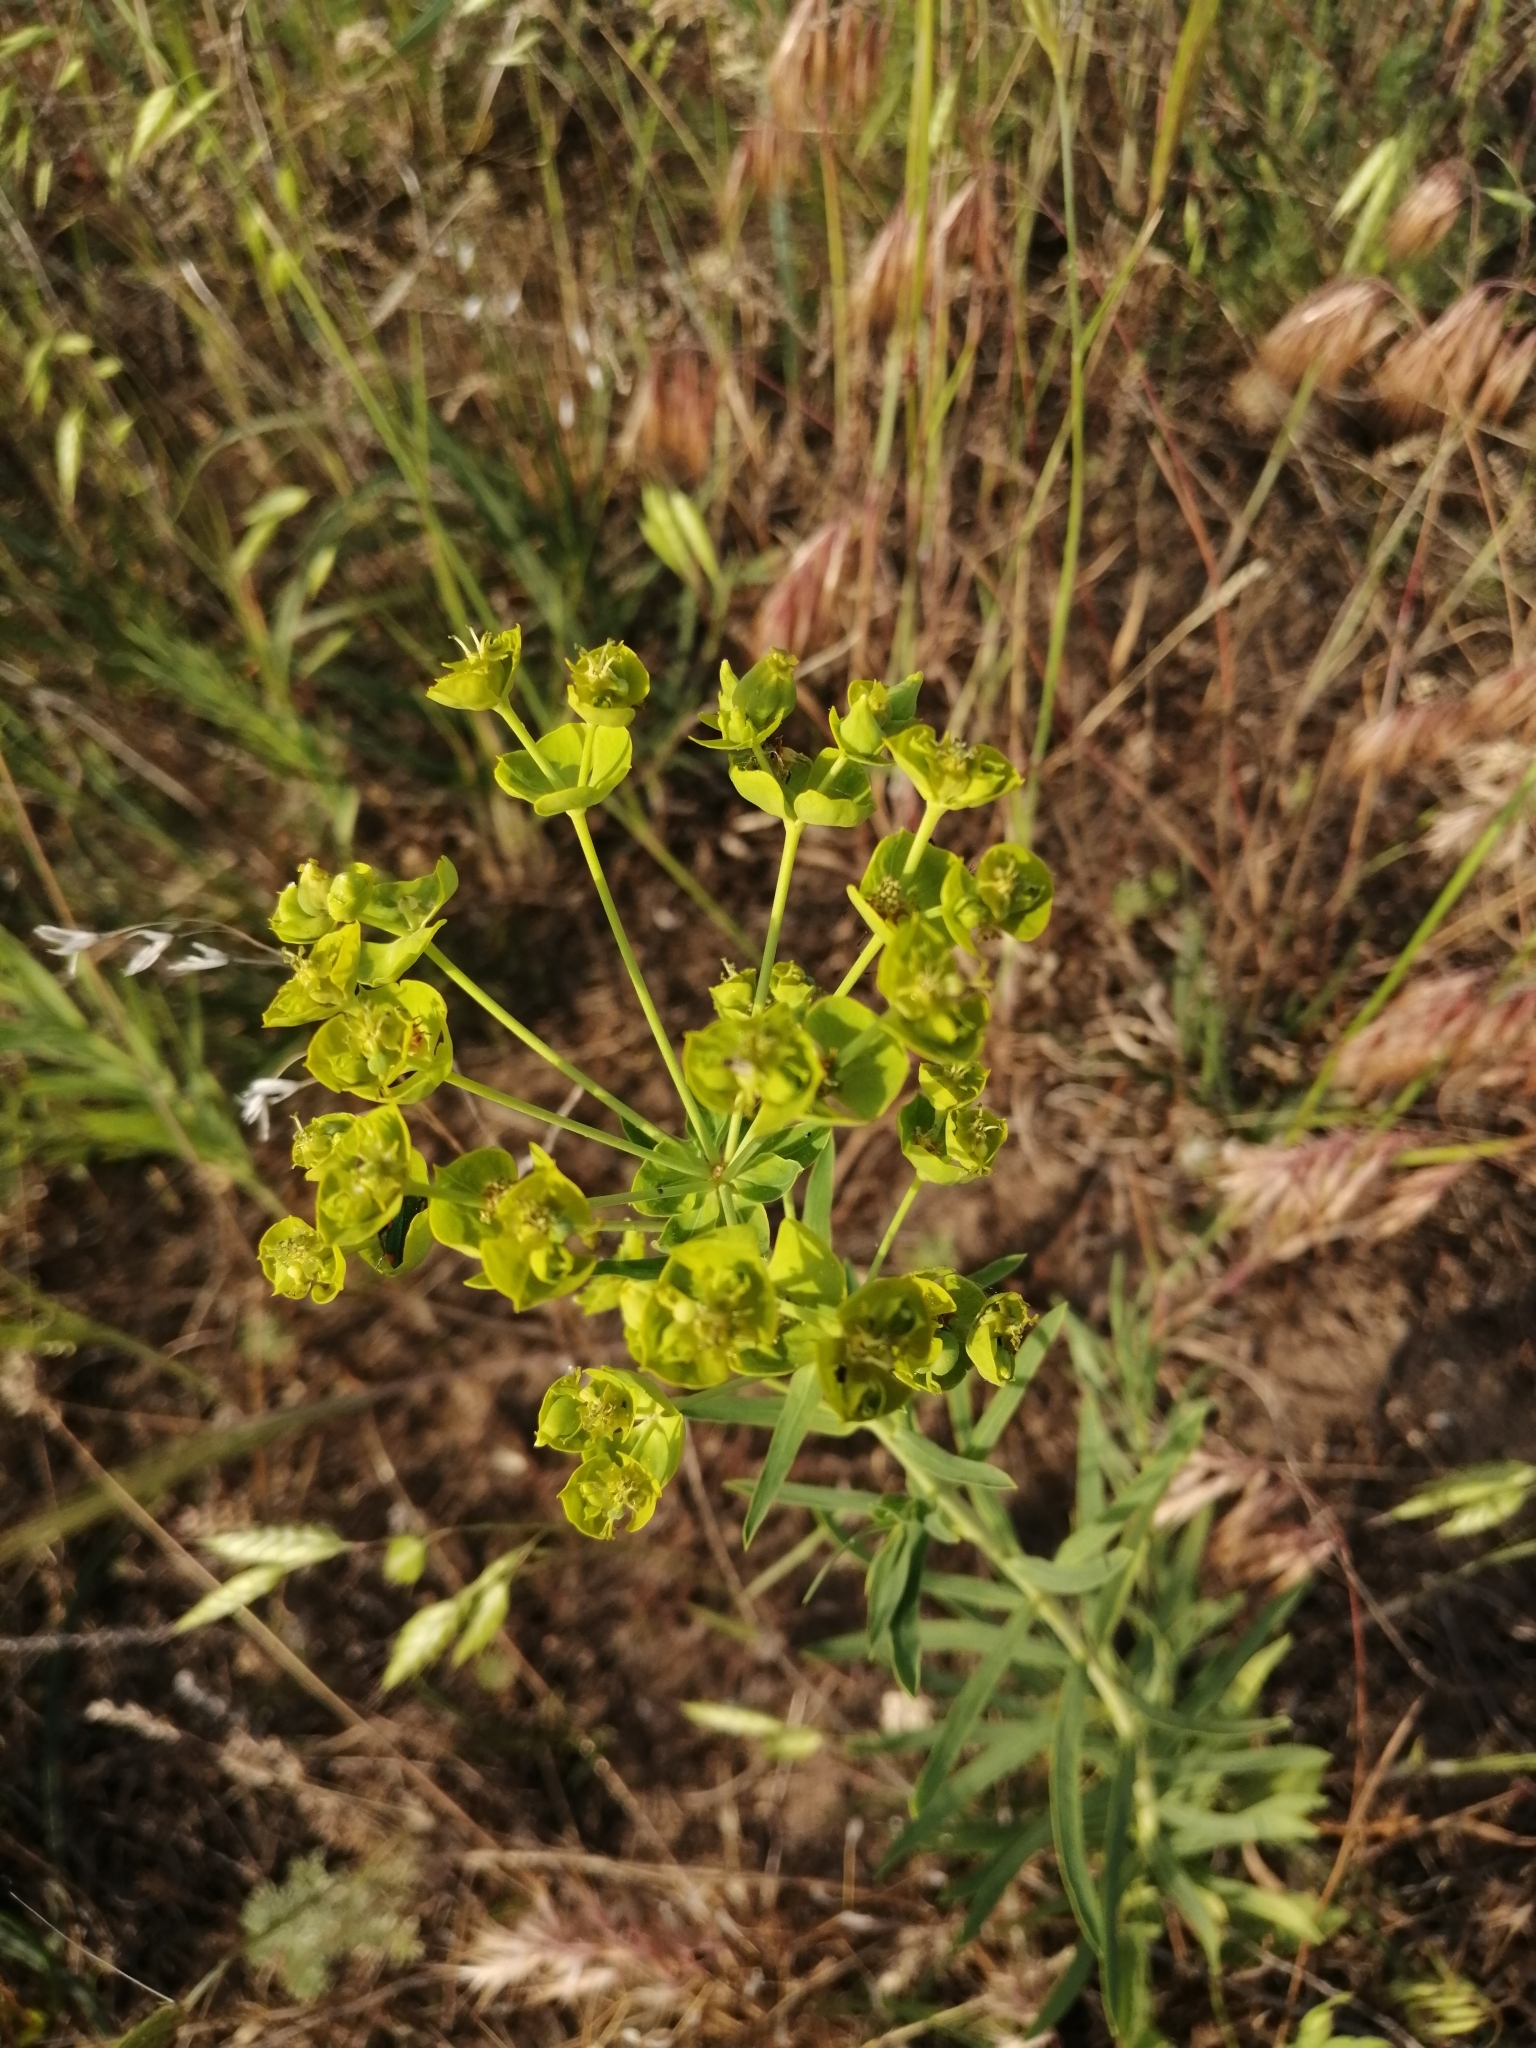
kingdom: Plantae
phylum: Tracheophyta
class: Magnoliopsida
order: Malpighiales
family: Euphorbiaceae
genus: Euphorbia
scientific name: Euphorbia virgata
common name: Leafy spurge
